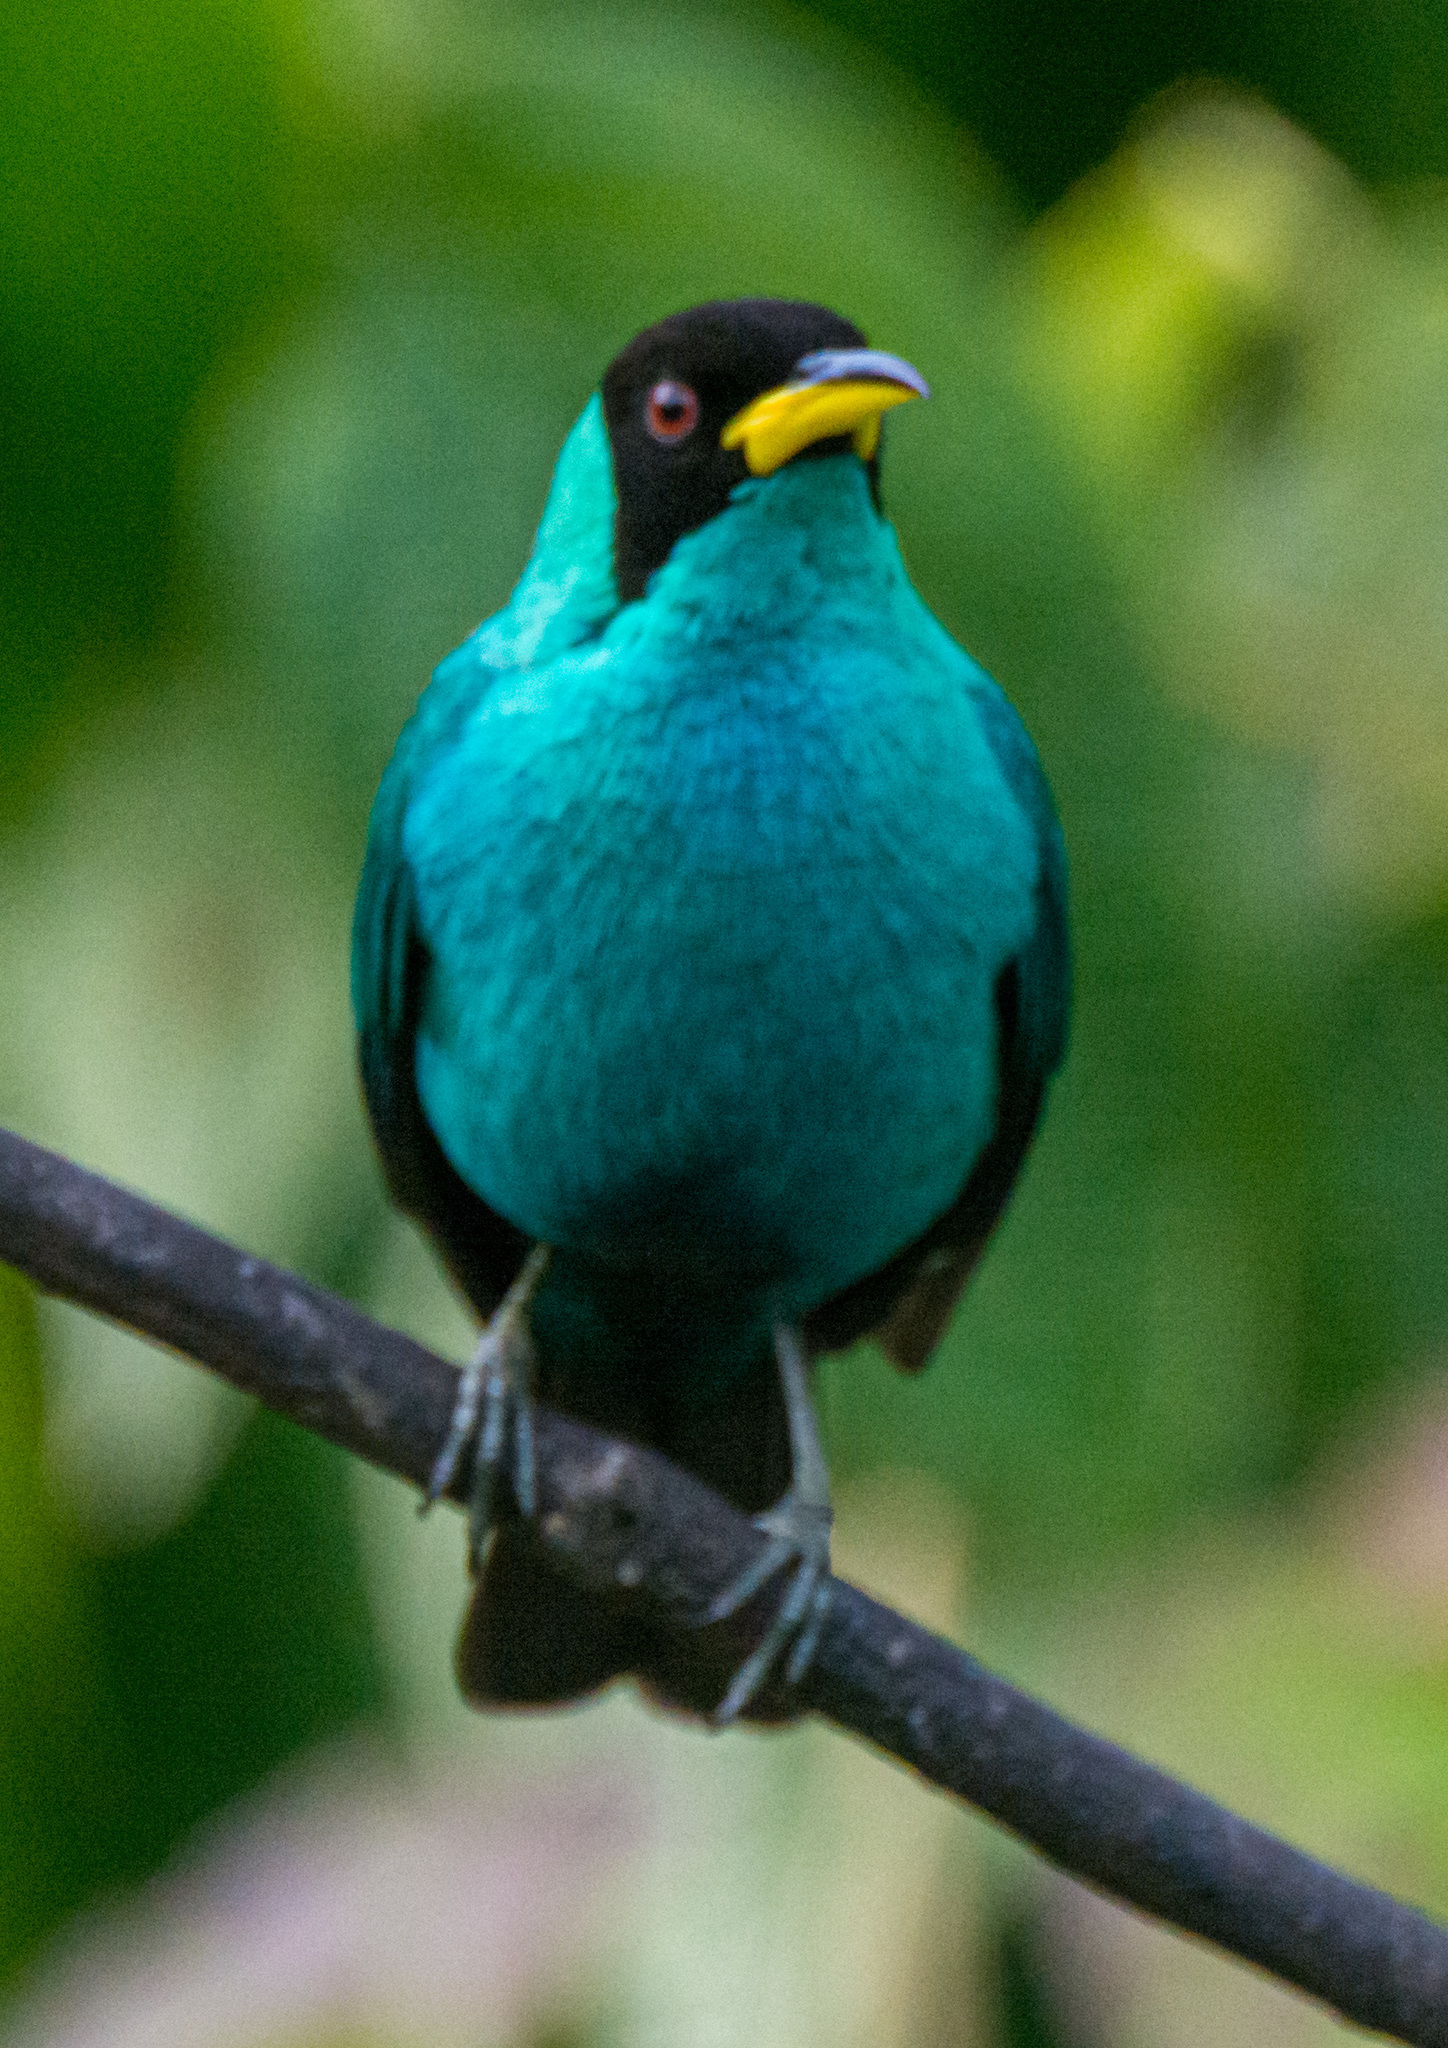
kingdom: Animalia
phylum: Chordata
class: Aves
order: Passeriformes
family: Thraupidae
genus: Chlorophanes
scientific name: Chlorophanes spiza
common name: Green honeycreeper
